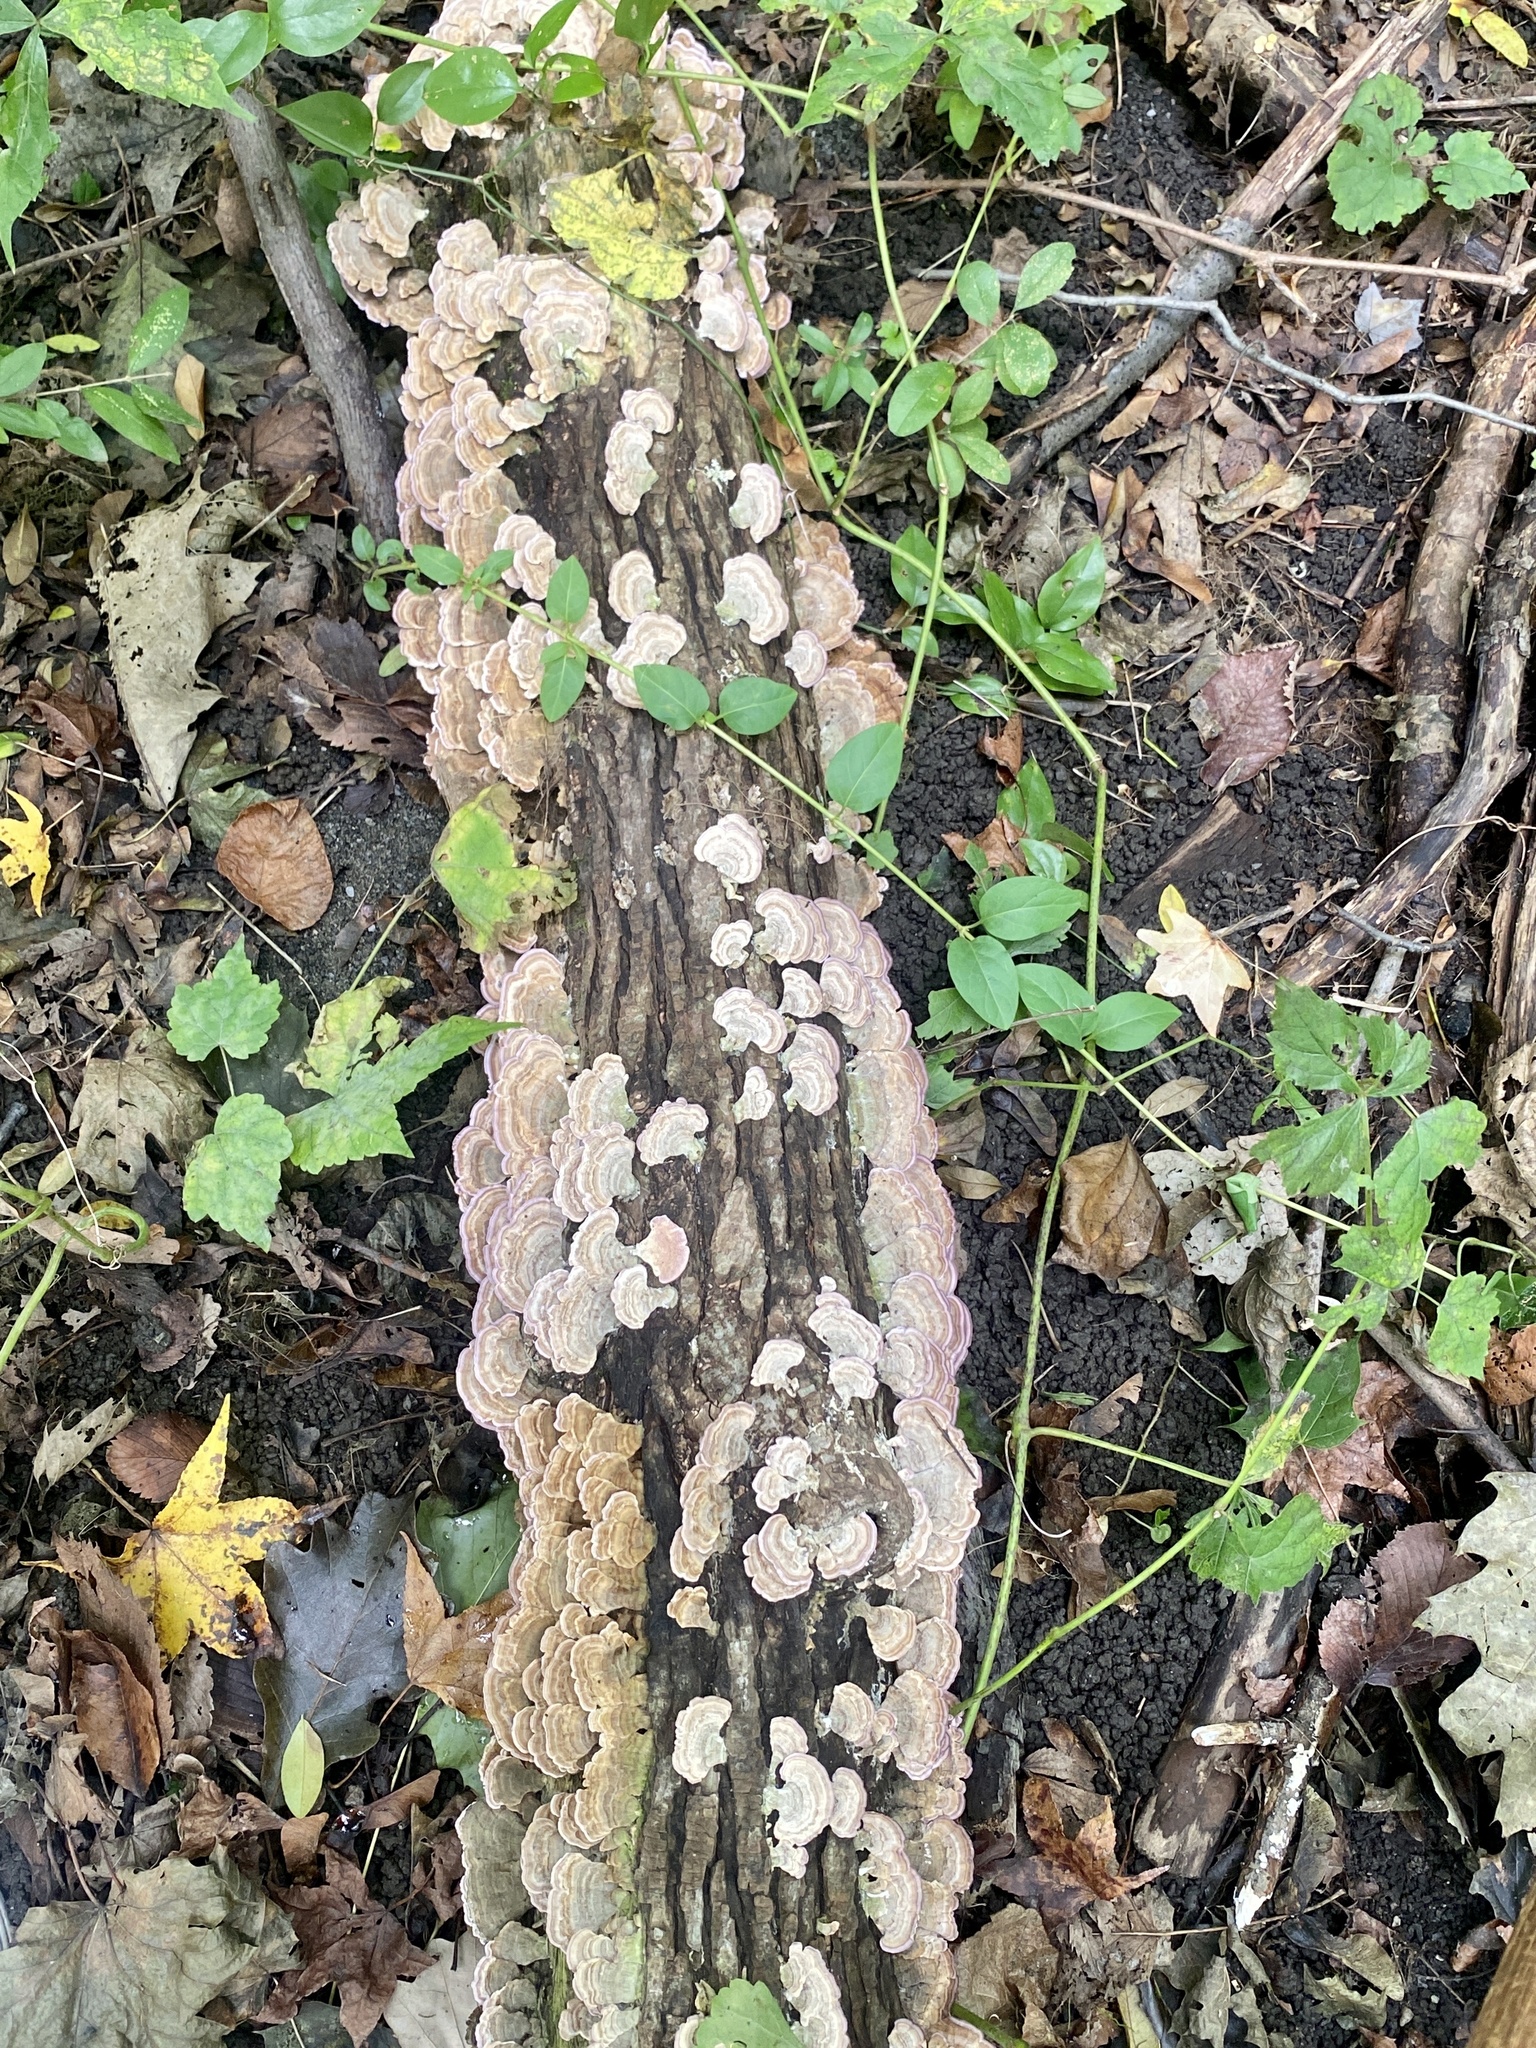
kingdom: Fungi
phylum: Basidiomycota
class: Agaricomycetes
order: Hymenochaetales
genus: Trichaptum
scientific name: Trichaptum biforme
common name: Violet-toothed polypore
